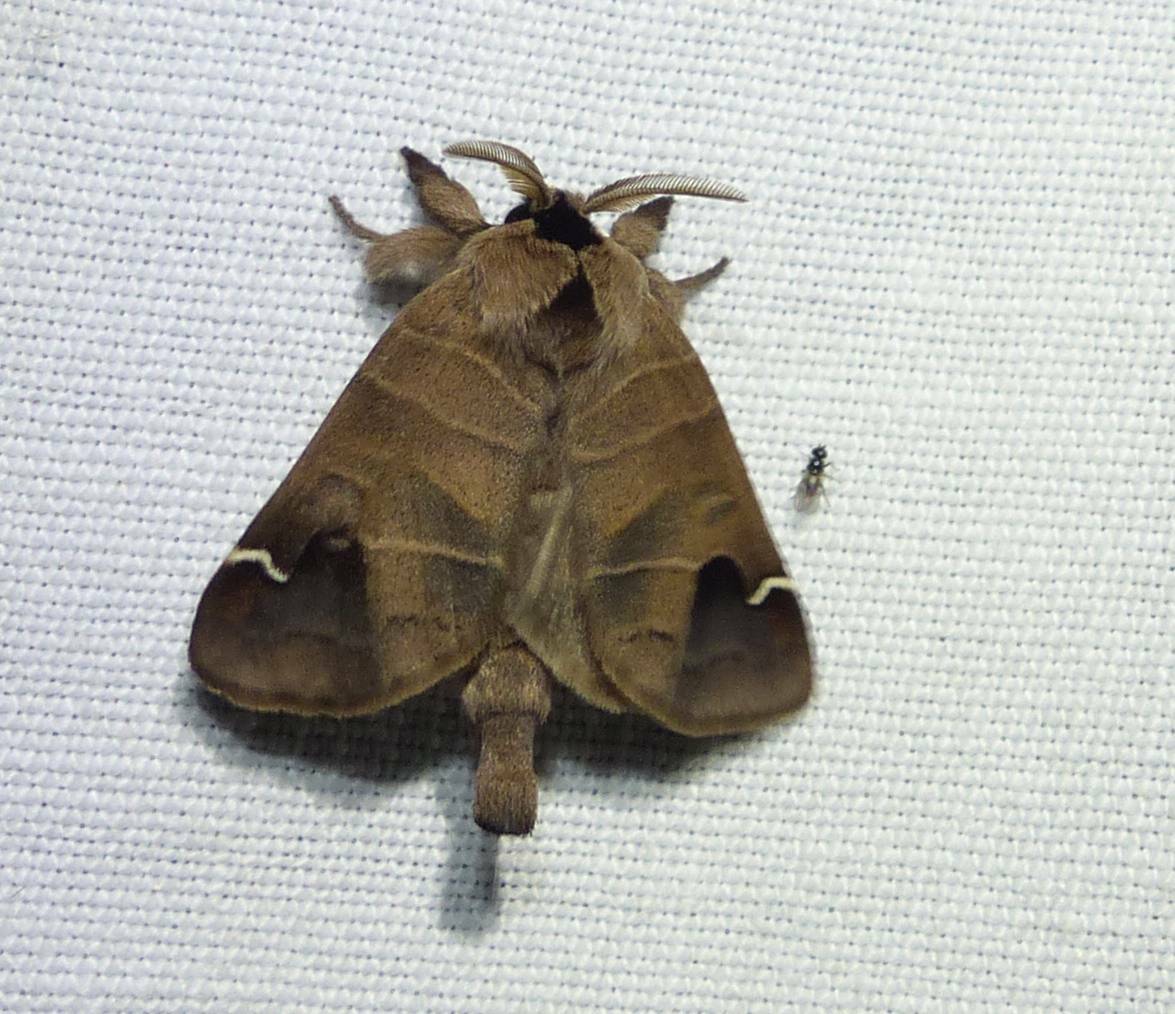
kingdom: Animalia
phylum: Arthropoda
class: Insecta
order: Lepidoptera
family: Notodontidae
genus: Clostera
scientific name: Clostera albosigma
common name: Sigmoid prominent
